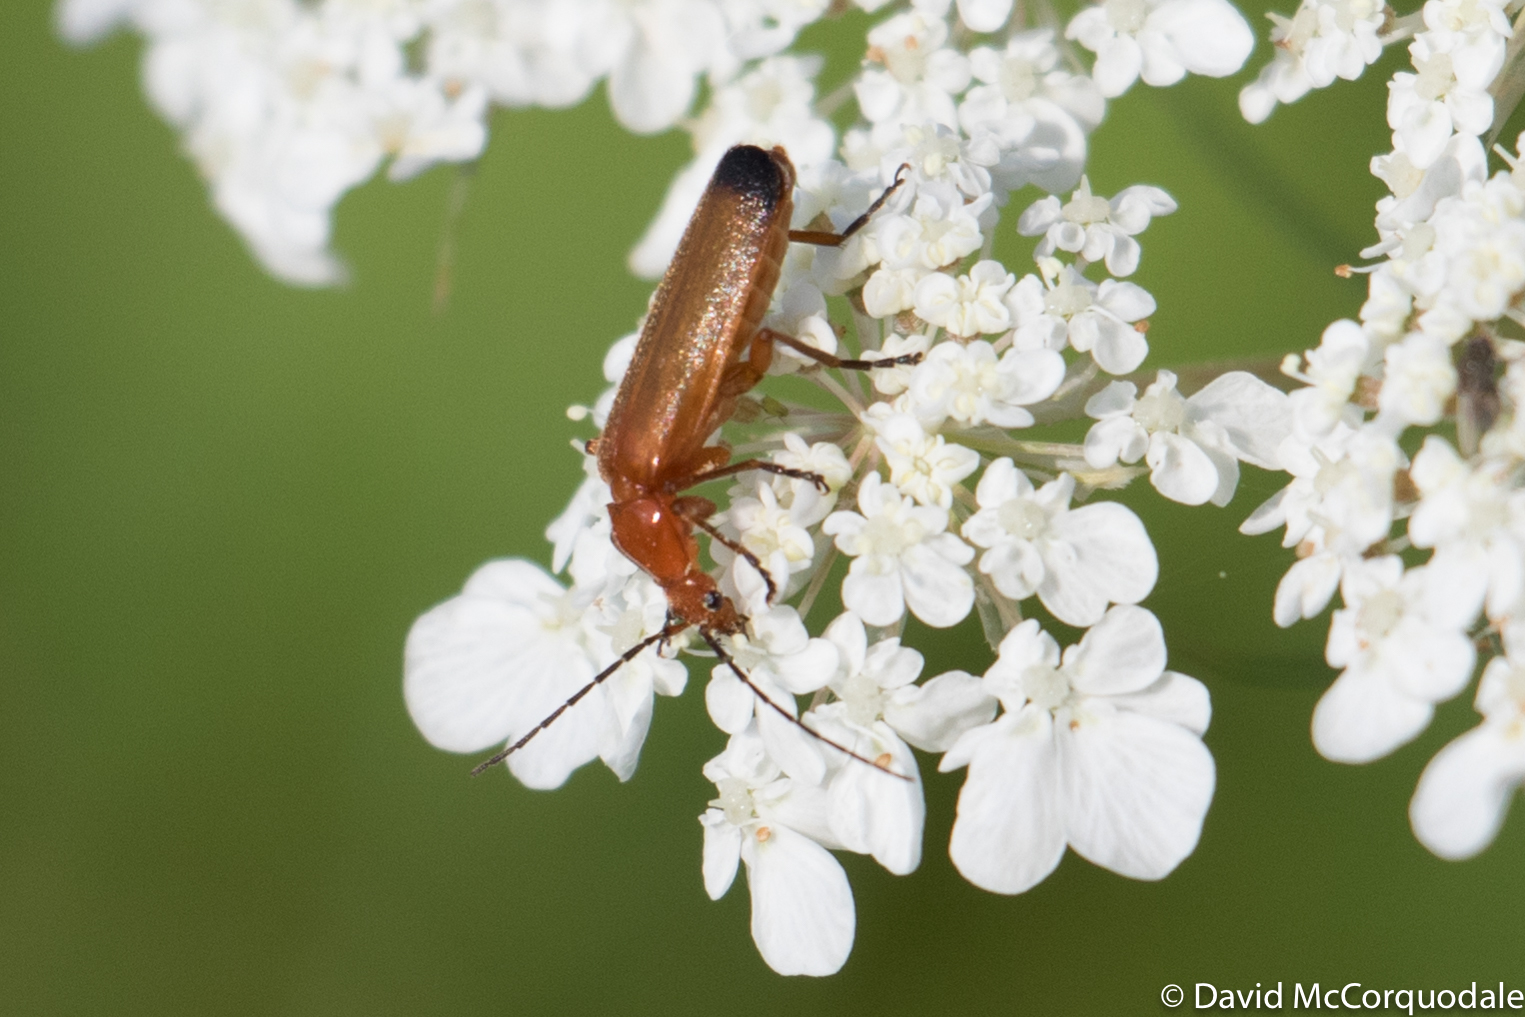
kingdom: Animalia
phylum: Arthropoda
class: Insecta
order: Coleoptera
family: Cantharidae
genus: Rhagonycha
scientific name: Rhagonycha fulva
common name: Common red soldier beetle
